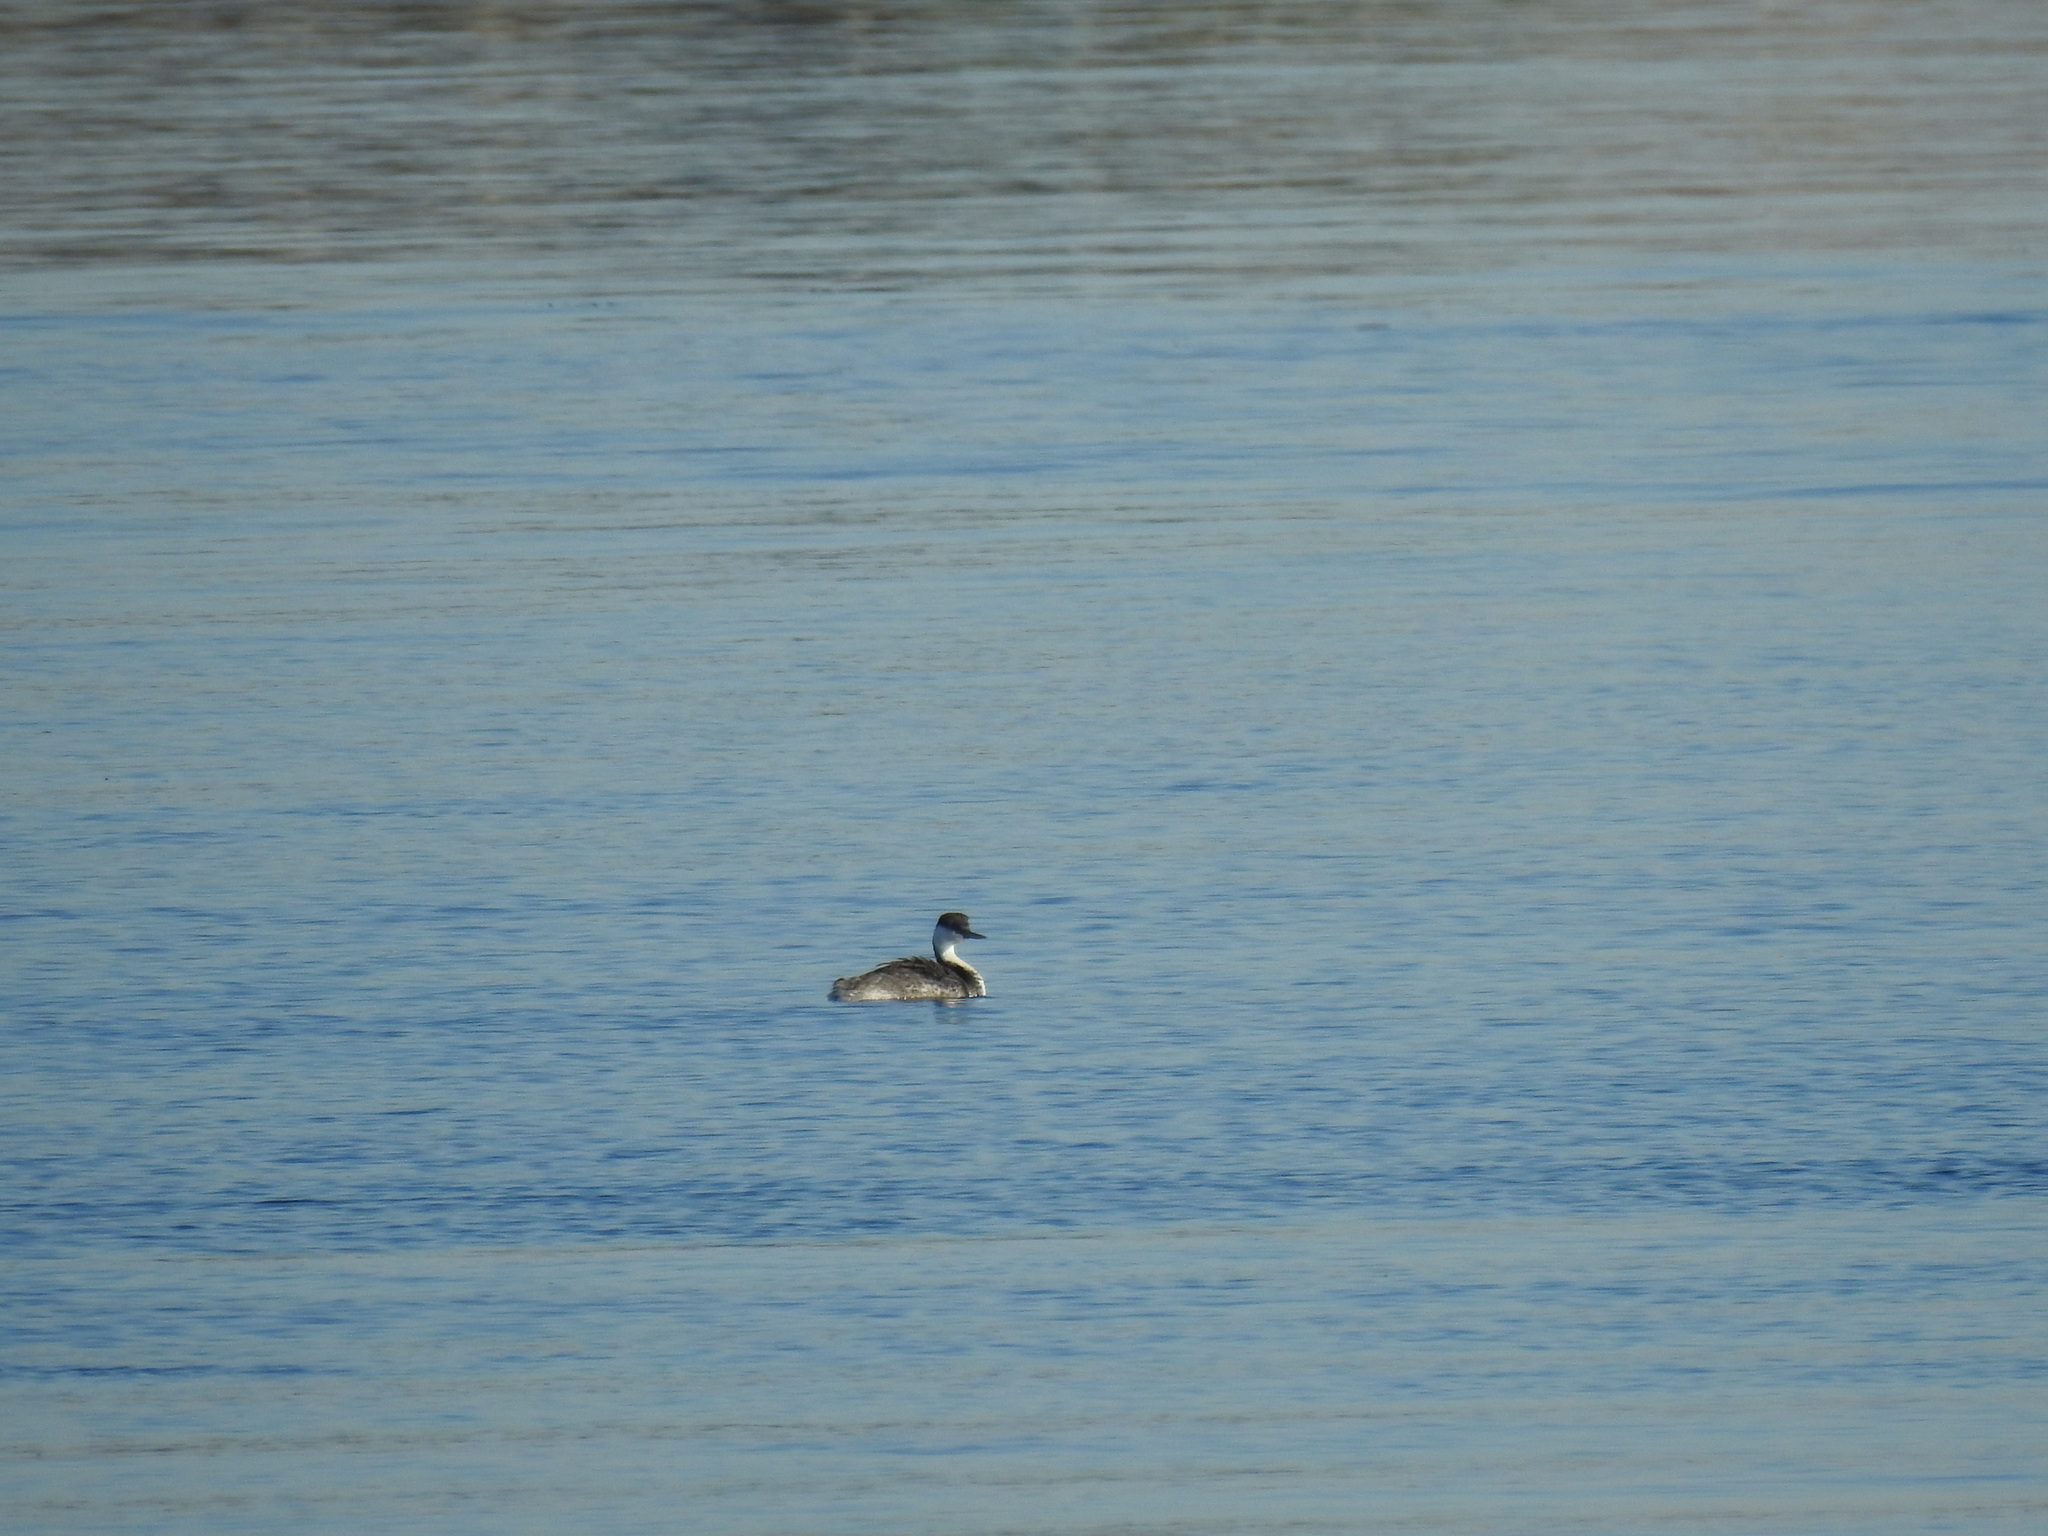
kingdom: Animalia
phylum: Chordata
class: Aves
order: Podicipediformes
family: Podicipedidae
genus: Aechmophorus
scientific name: Aechmophorus occidentalis
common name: Western grebe
